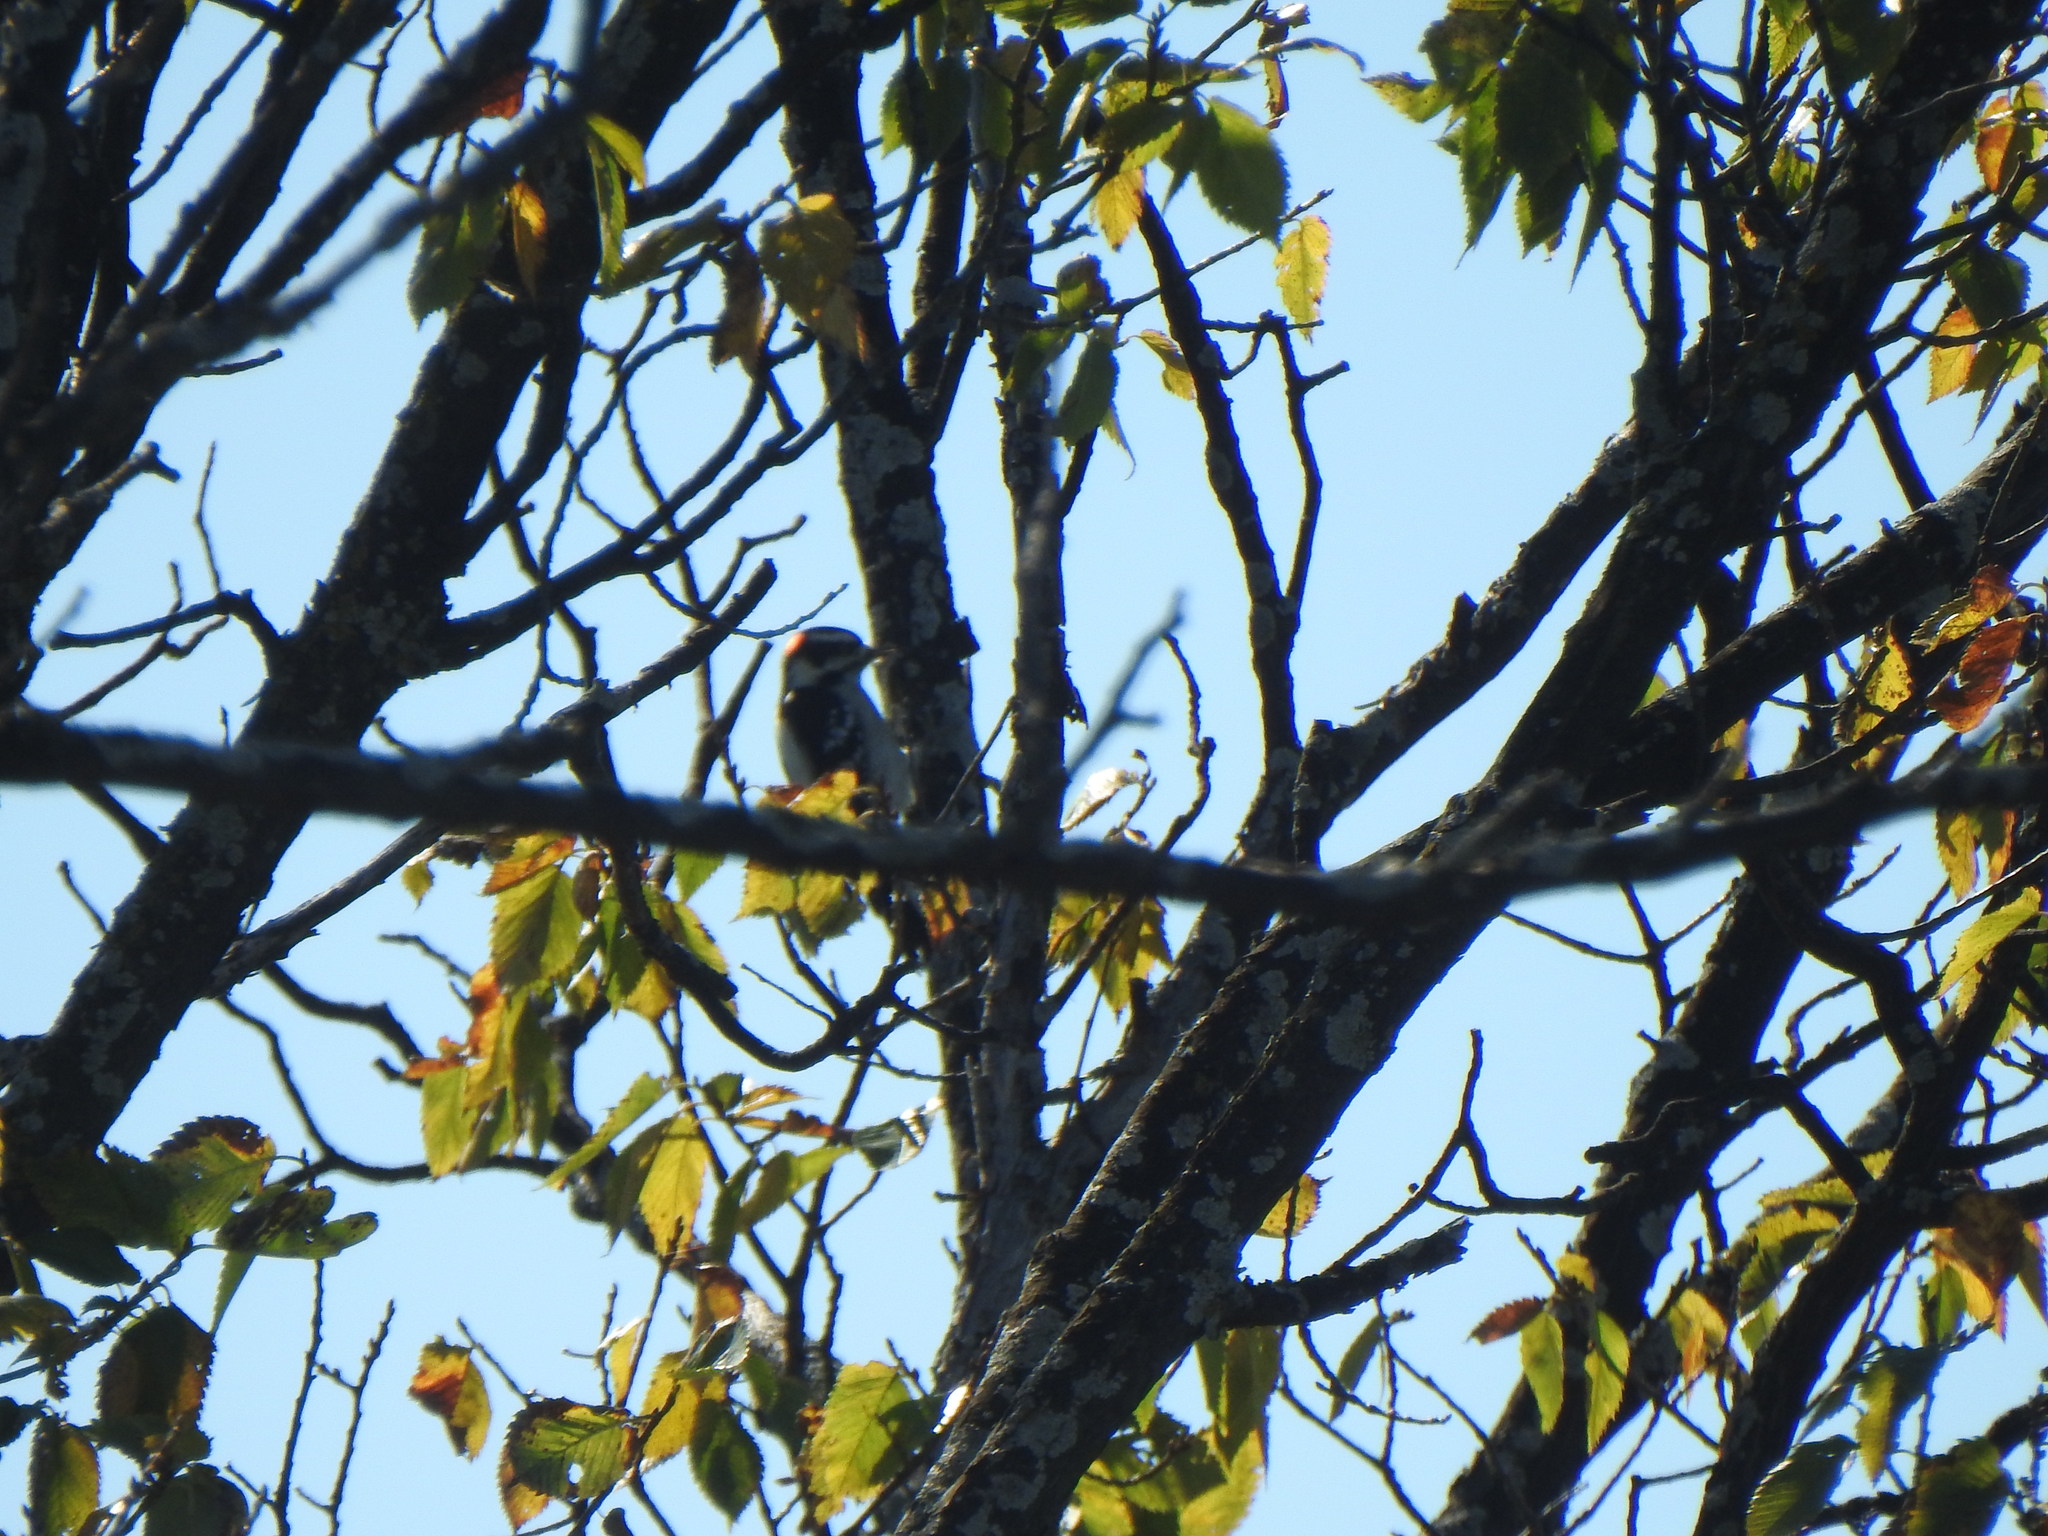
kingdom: Animalia
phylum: Chordata
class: Aves
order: Piciformes
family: Picidae
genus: Dryobates
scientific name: Dryobates pubescens
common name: Downy woodpecker
